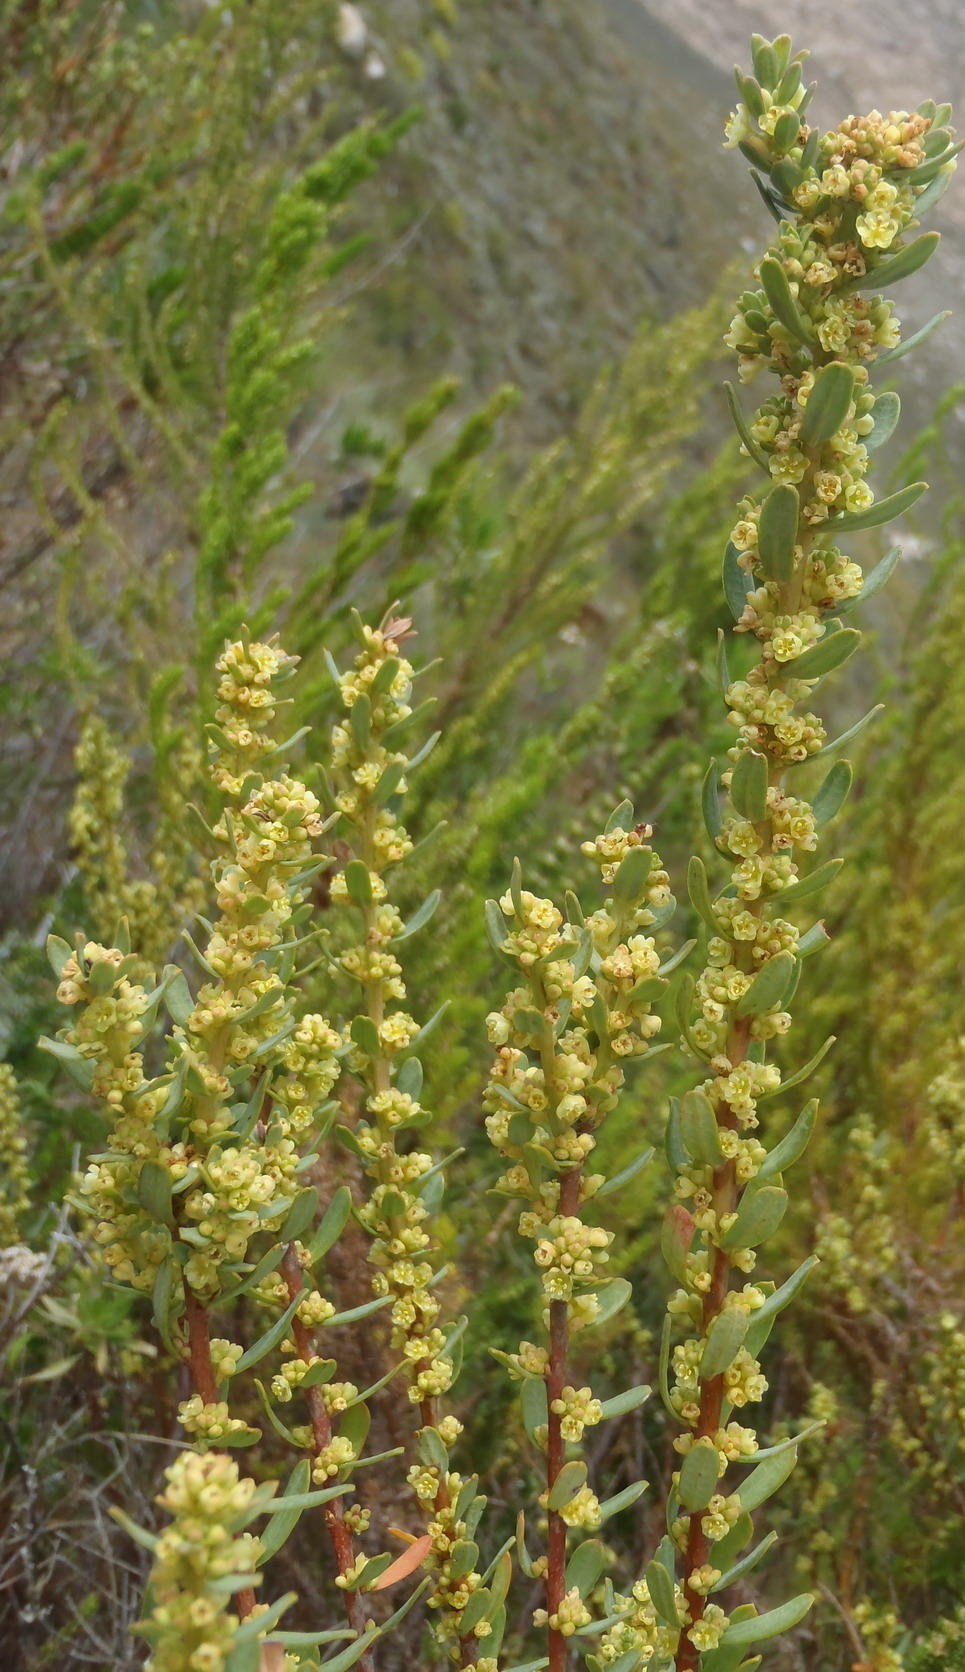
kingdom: Plantae
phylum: Tracheophyta
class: Magnoliopsida
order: Malpighiales
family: Peraceae
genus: Clutia
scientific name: Clutia polifolia
